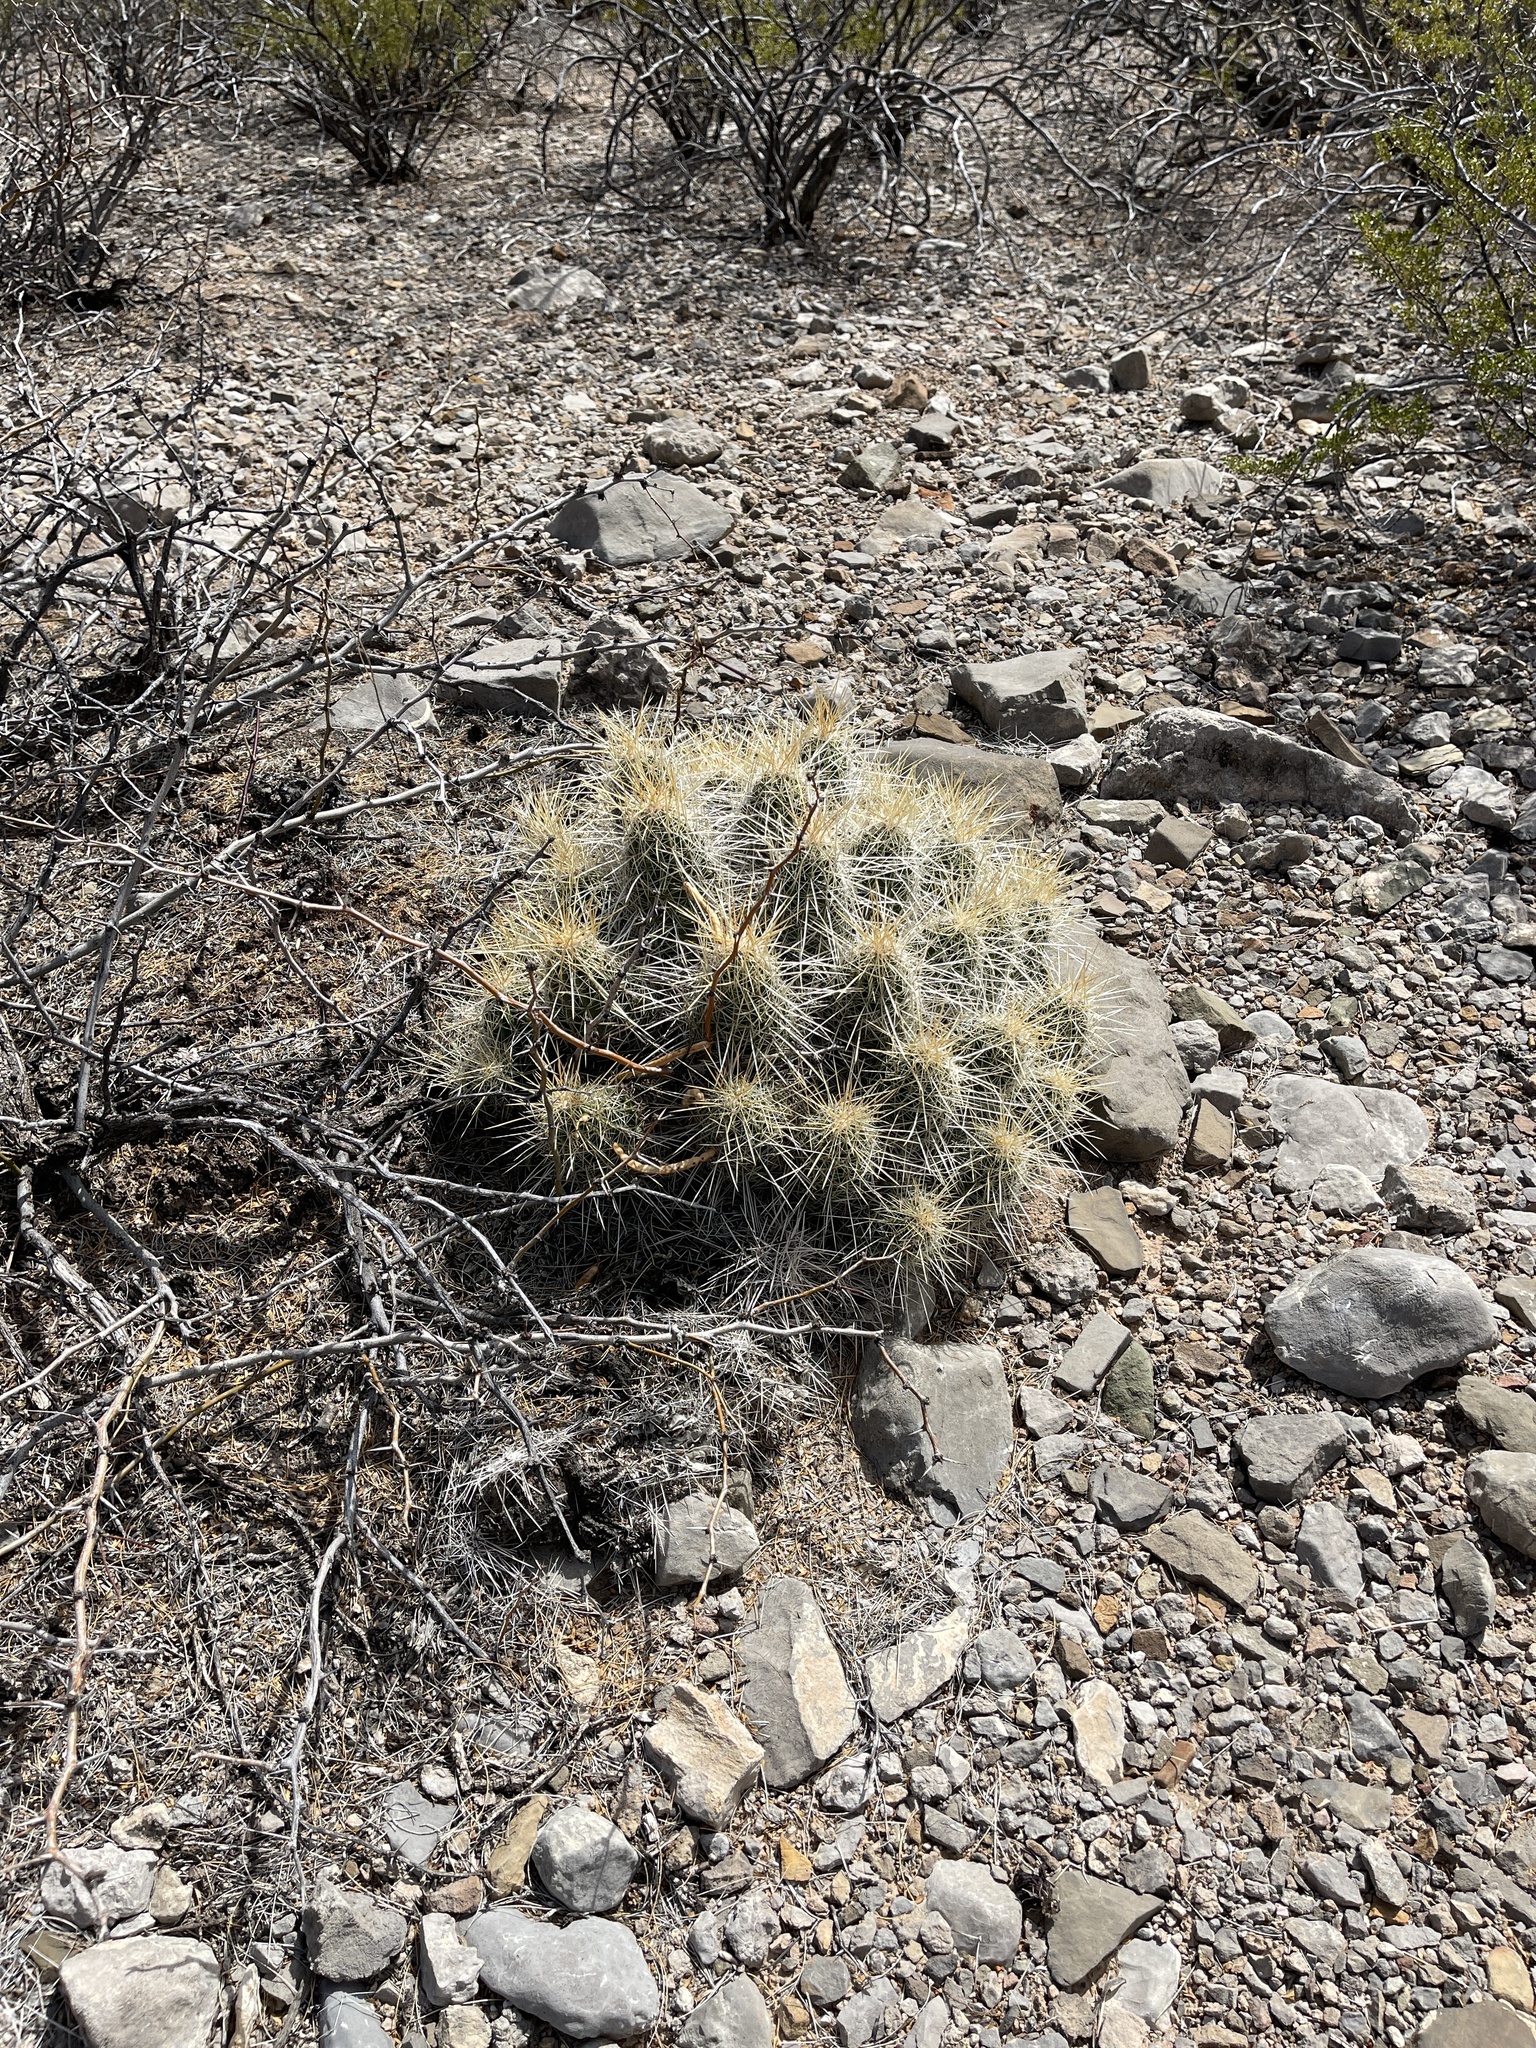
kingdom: Plantae
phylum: Tracheophyta
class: Magnoliopsida
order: Caryophyllales
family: Cactaceae
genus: Echinocereus
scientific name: Echinocereus stramineus
